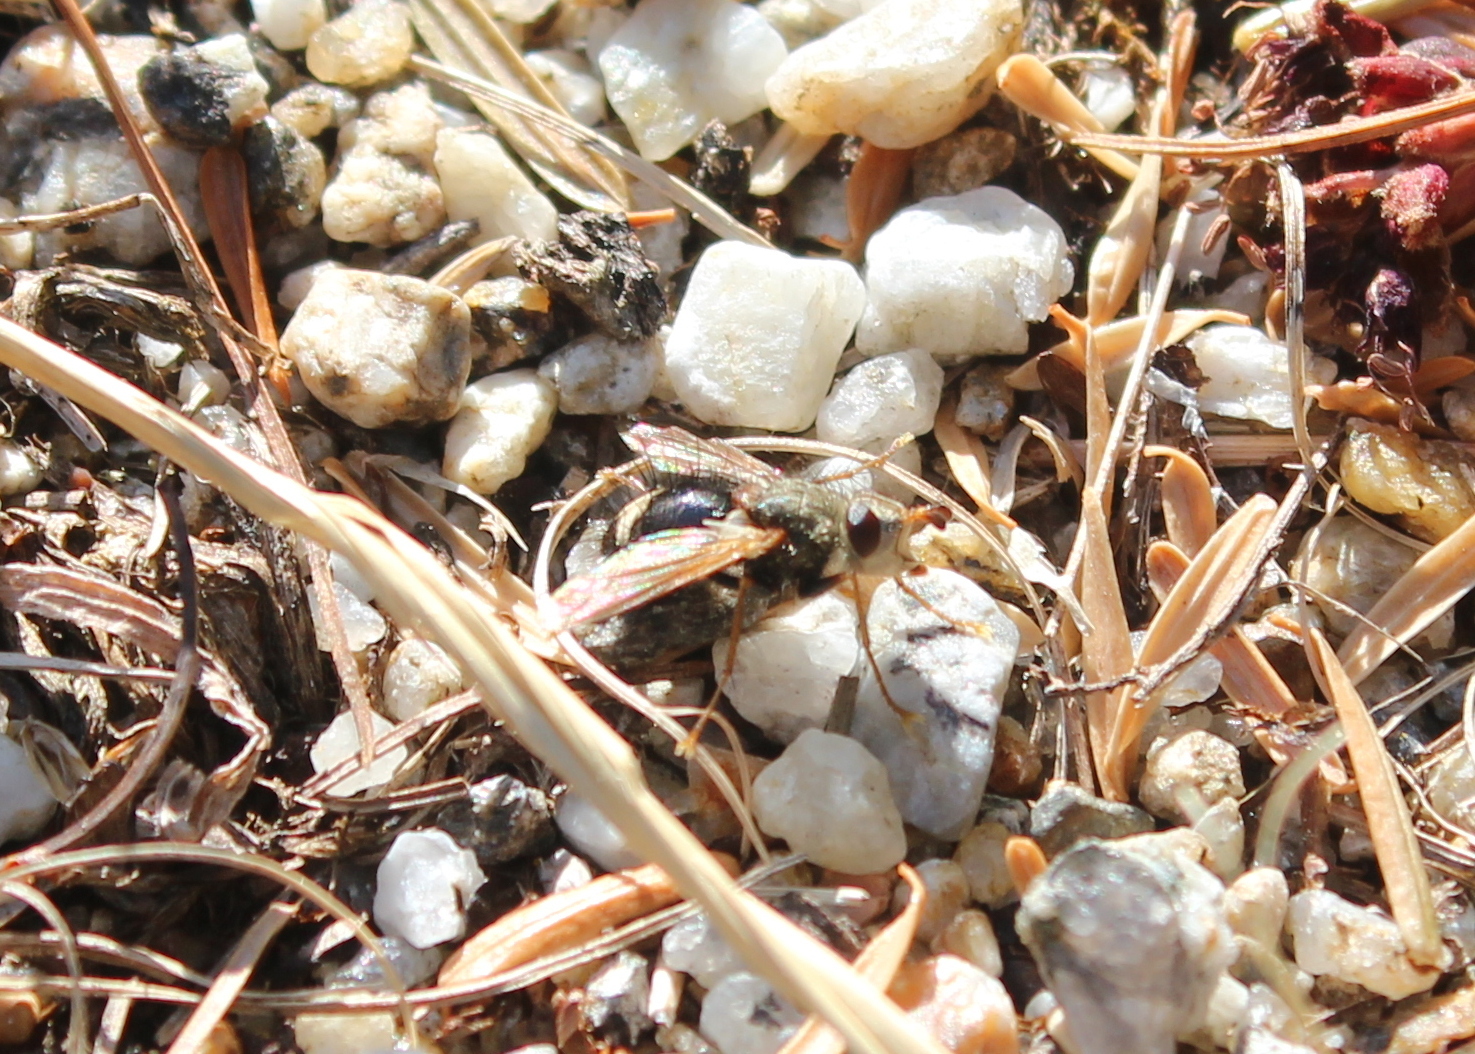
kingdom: Animalia
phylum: Arthropoda
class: Insecta
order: Diptera
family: Tachinidae
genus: Epalpus
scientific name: Epalpus signifer
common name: Early tachinid fly
